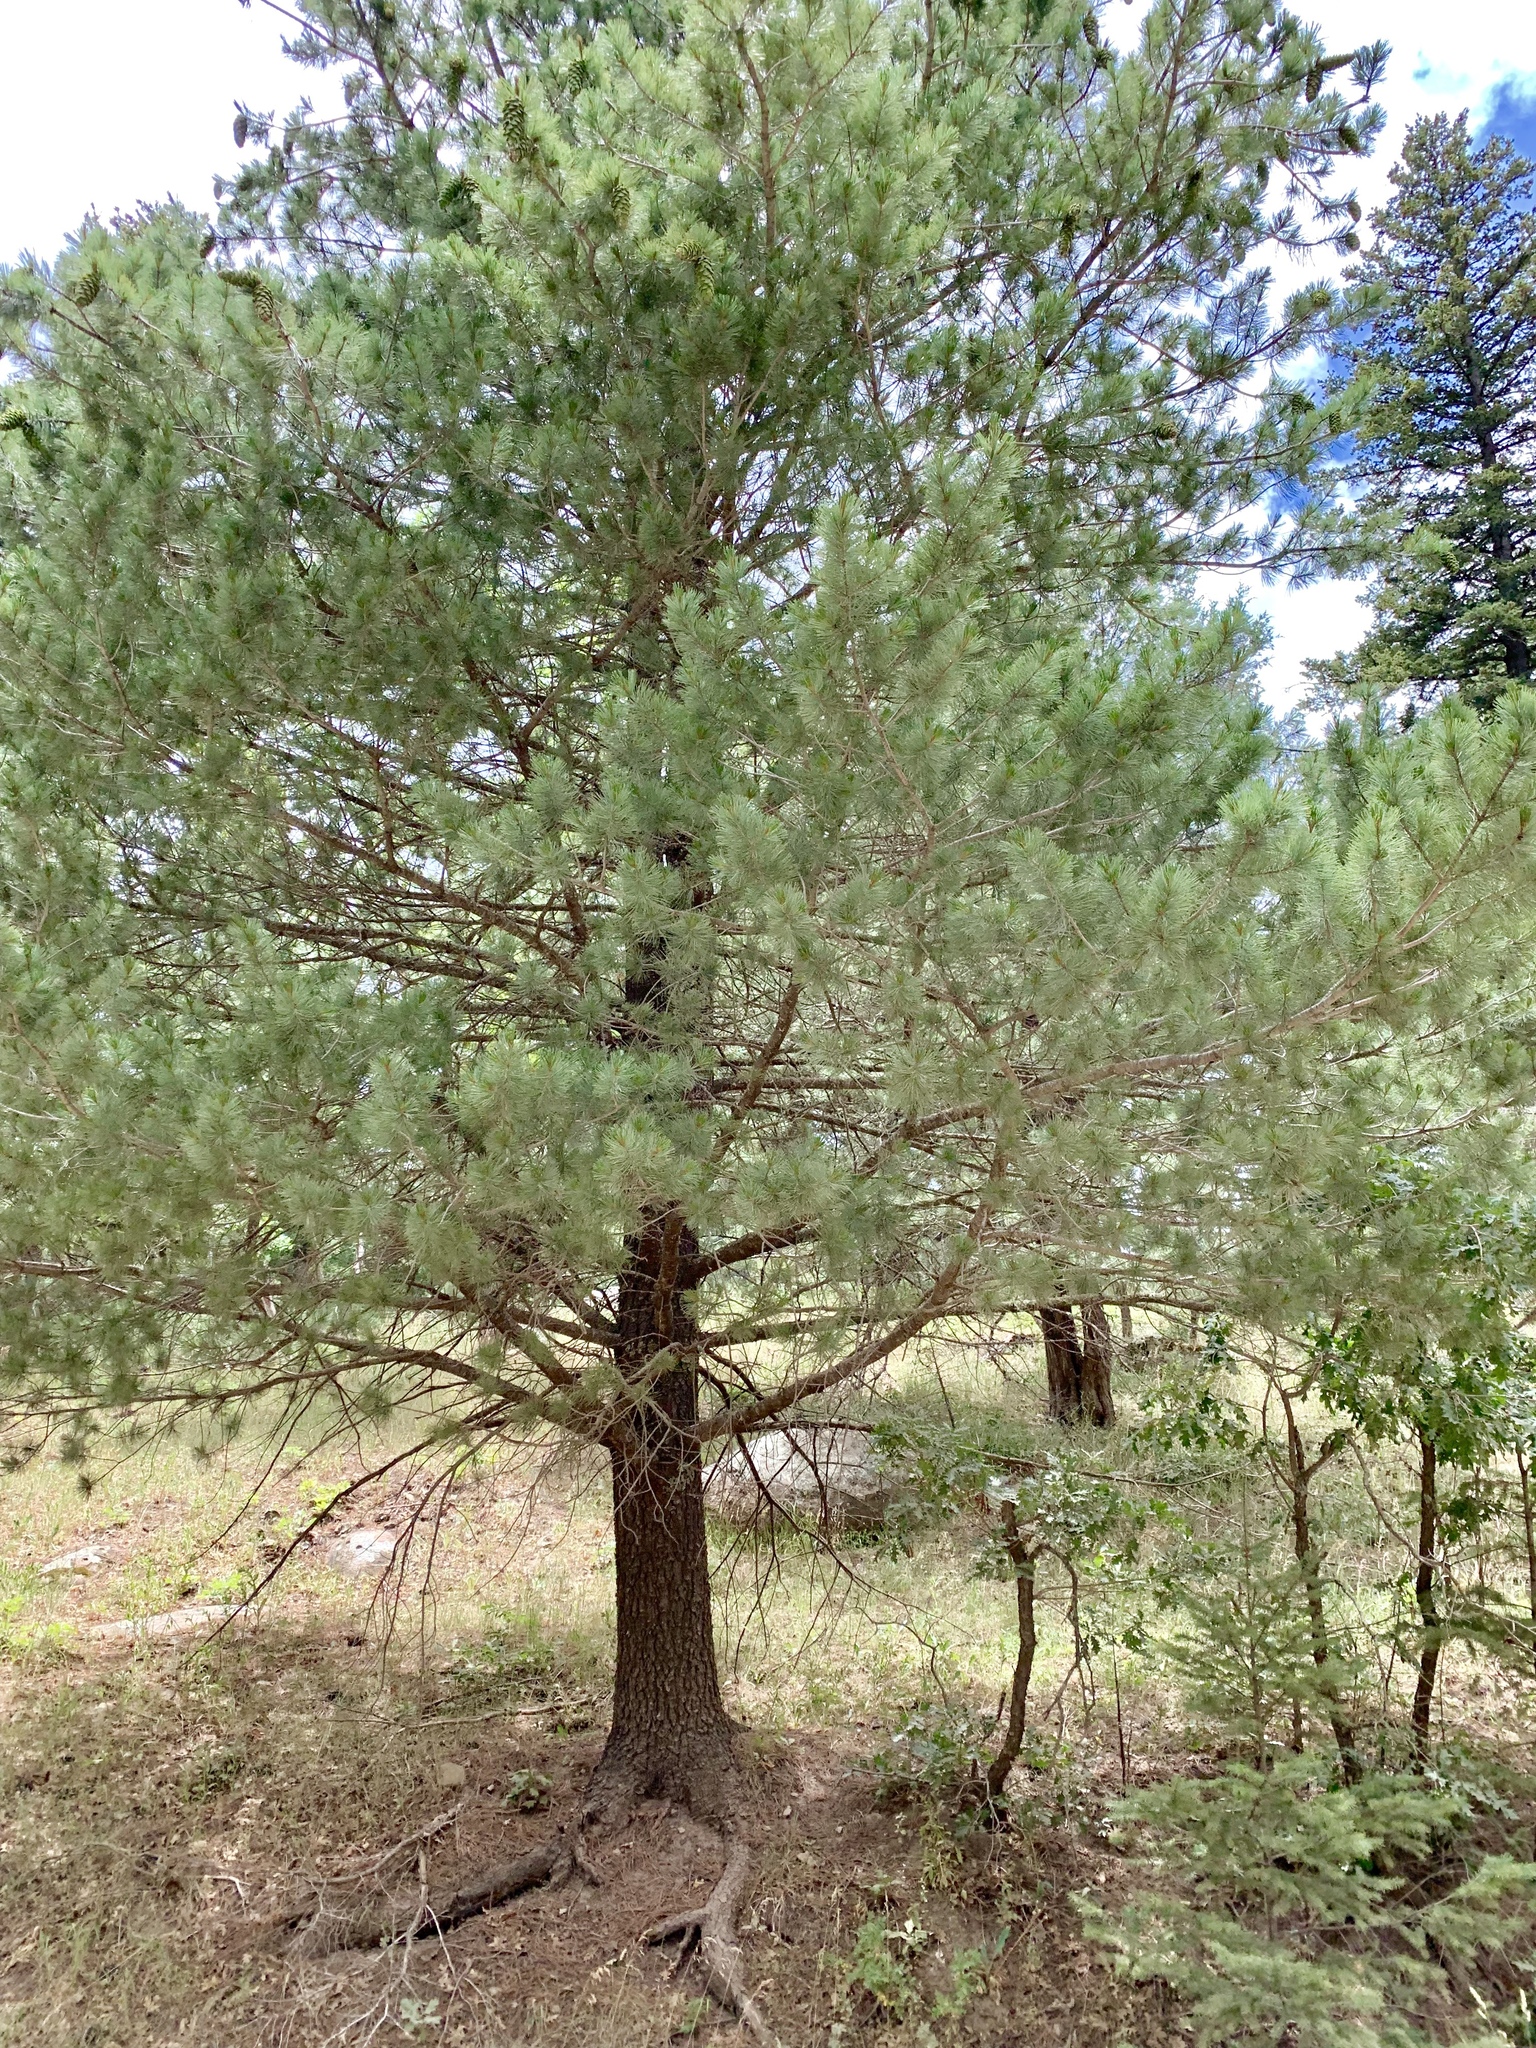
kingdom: Plantae
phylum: Tracheophyta
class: Pinopsida
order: Pinales
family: Pinaceae
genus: Pinus
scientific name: Pinus strobiformis
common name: Southwestern white pine
